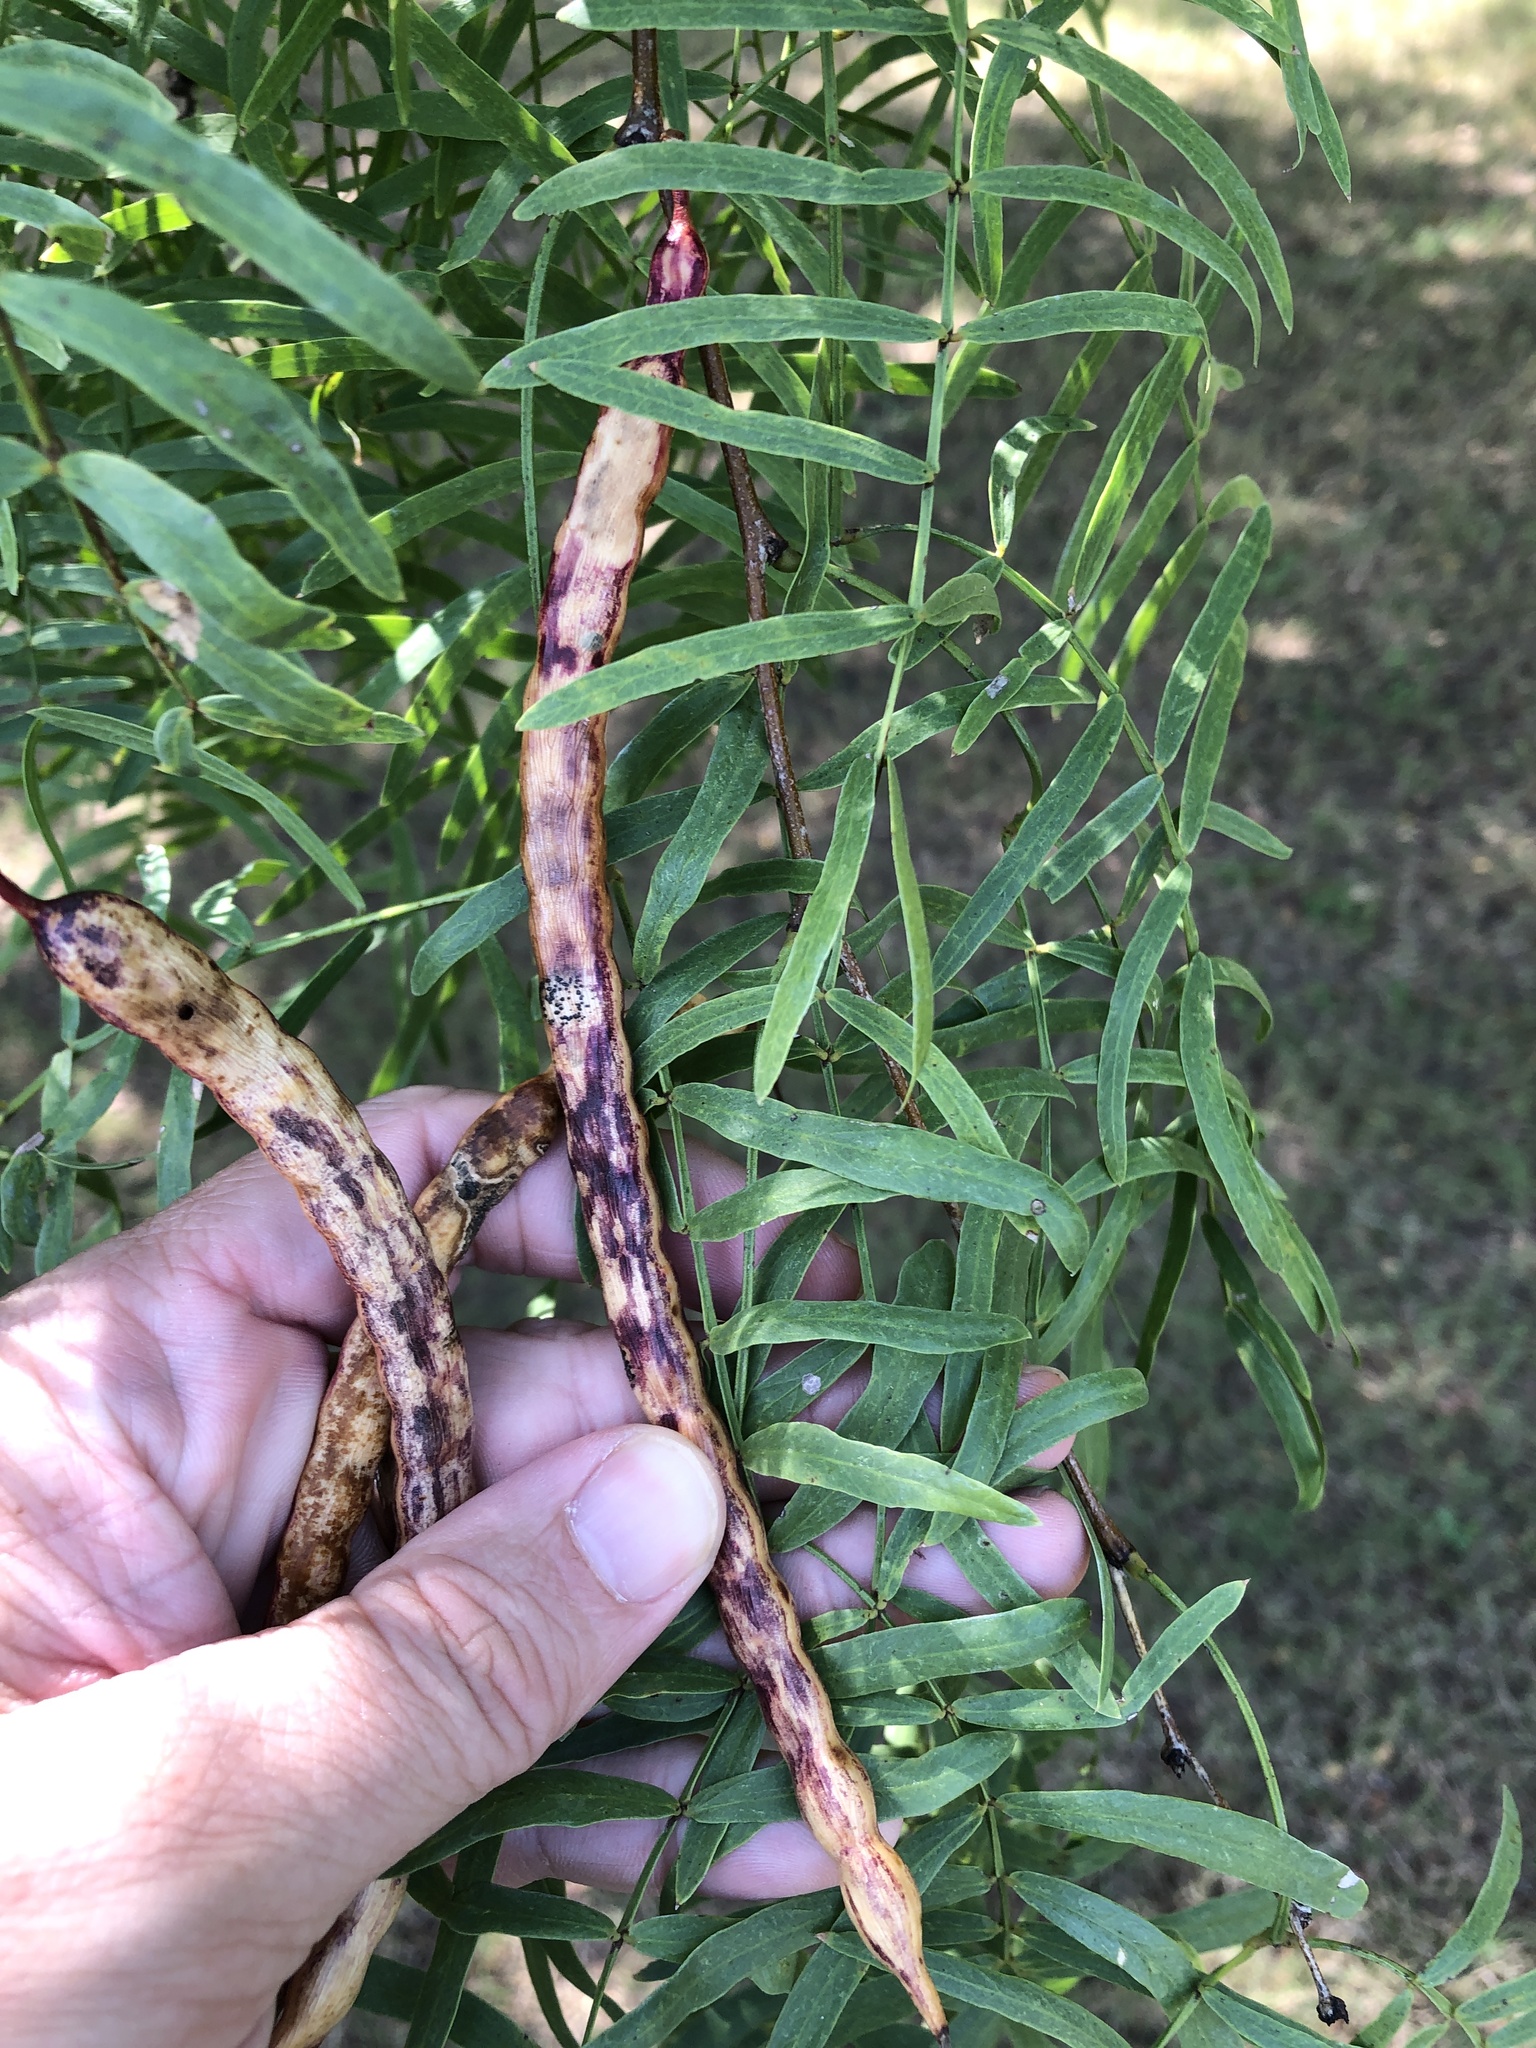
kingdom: Plantae
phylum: Tracheophyta
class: Magnoliopsida
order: Fabales
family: Fabaceae
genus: Prosopis
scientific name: Prosopis glandulosa
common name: Honey mesquite
